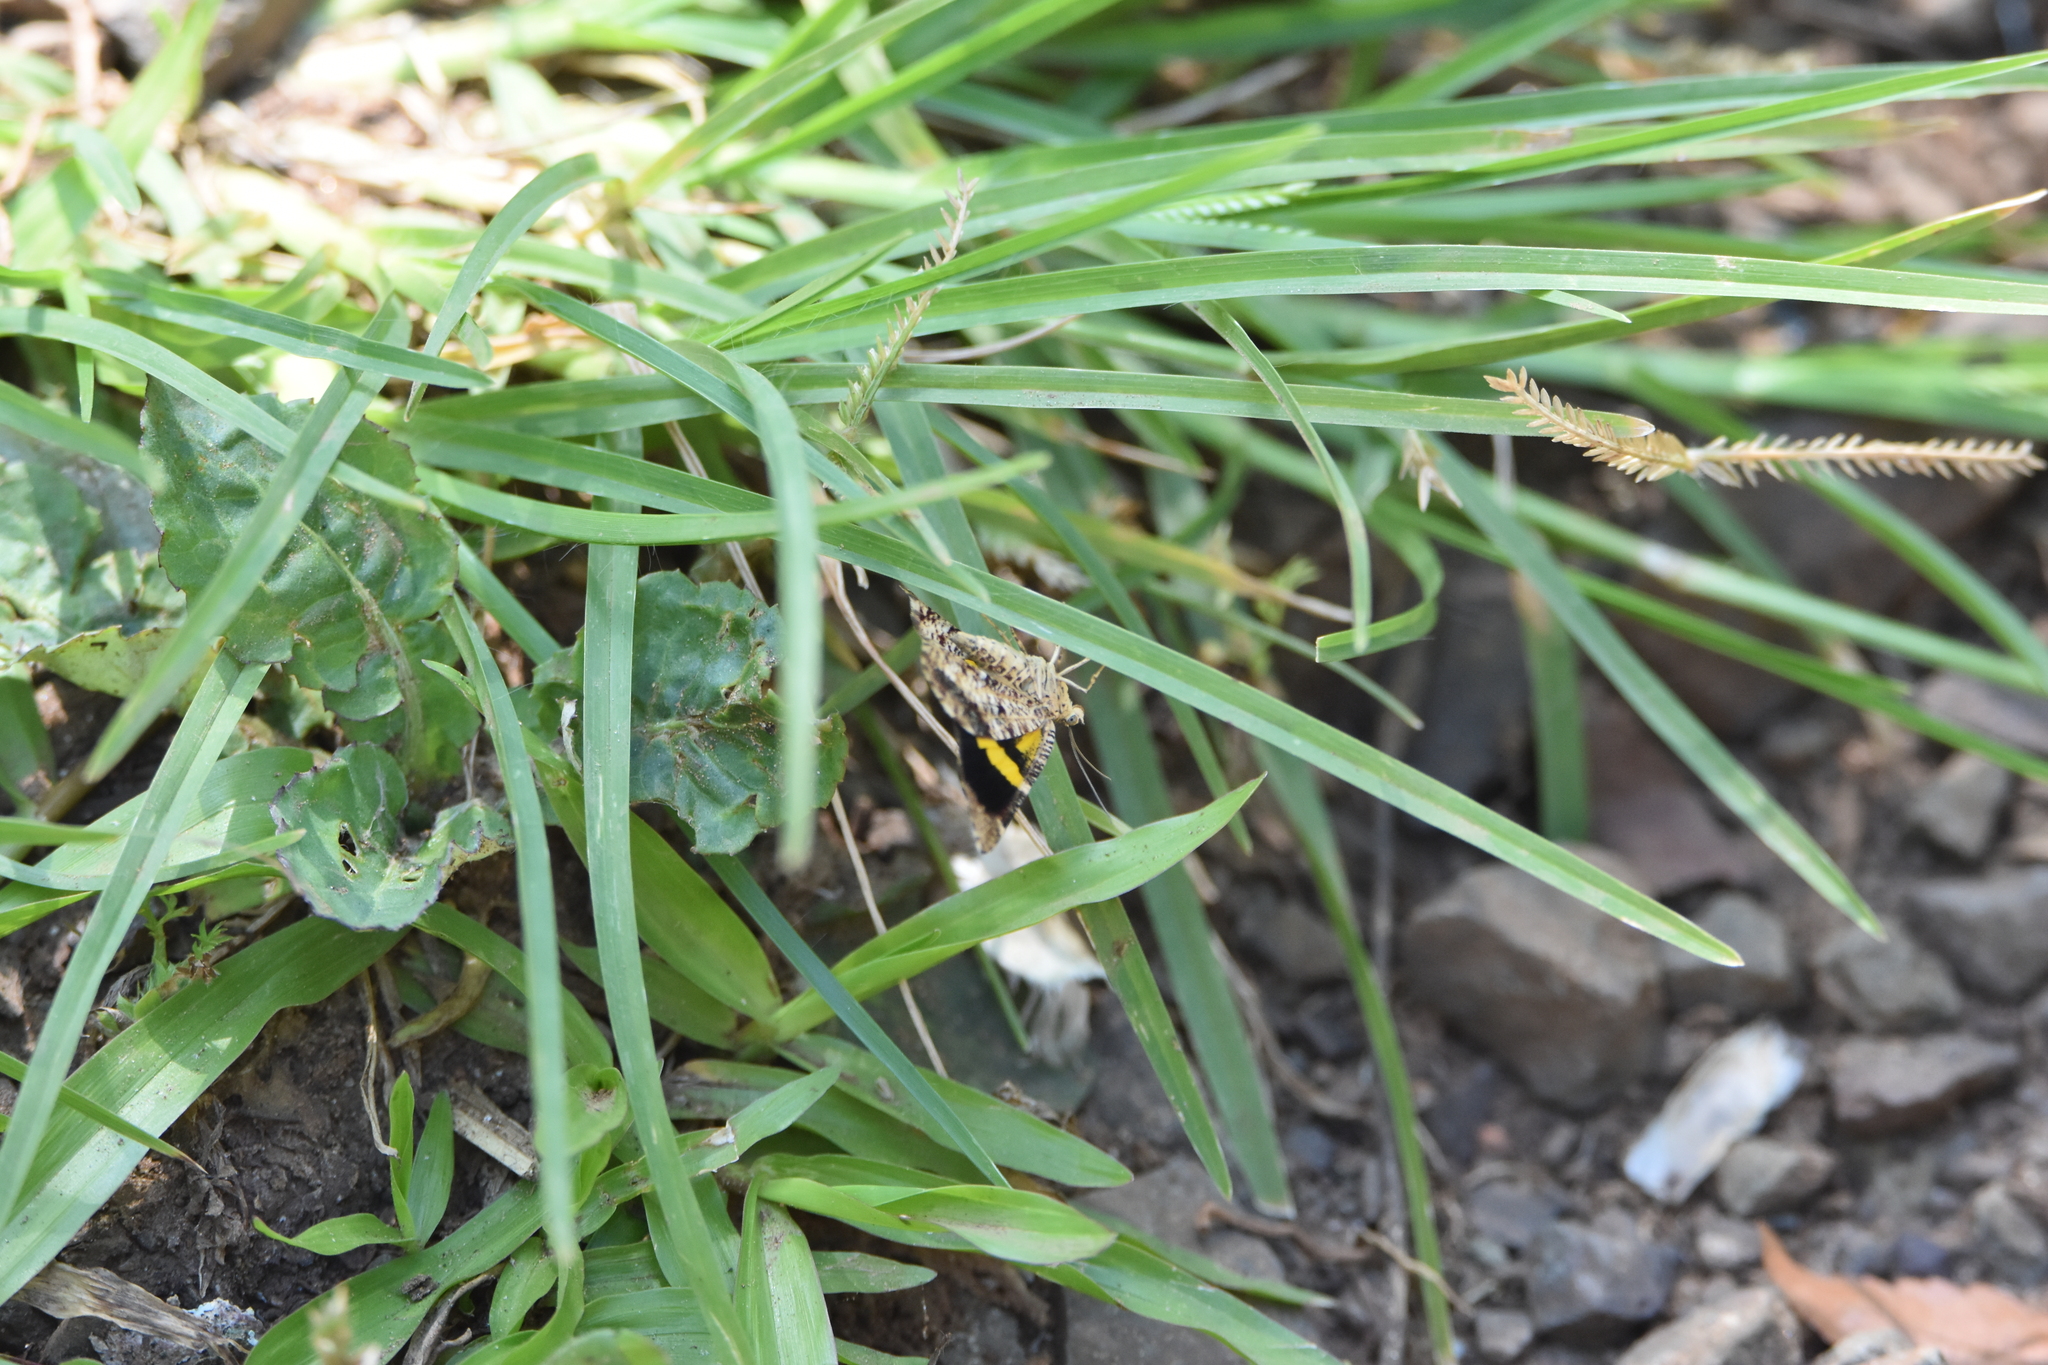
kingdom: Animalia
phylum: Arthropoda
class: Insecta
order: Lepidoptera
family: Geometridae
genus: Heterusia
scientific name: Heterusia quadruplicaria
